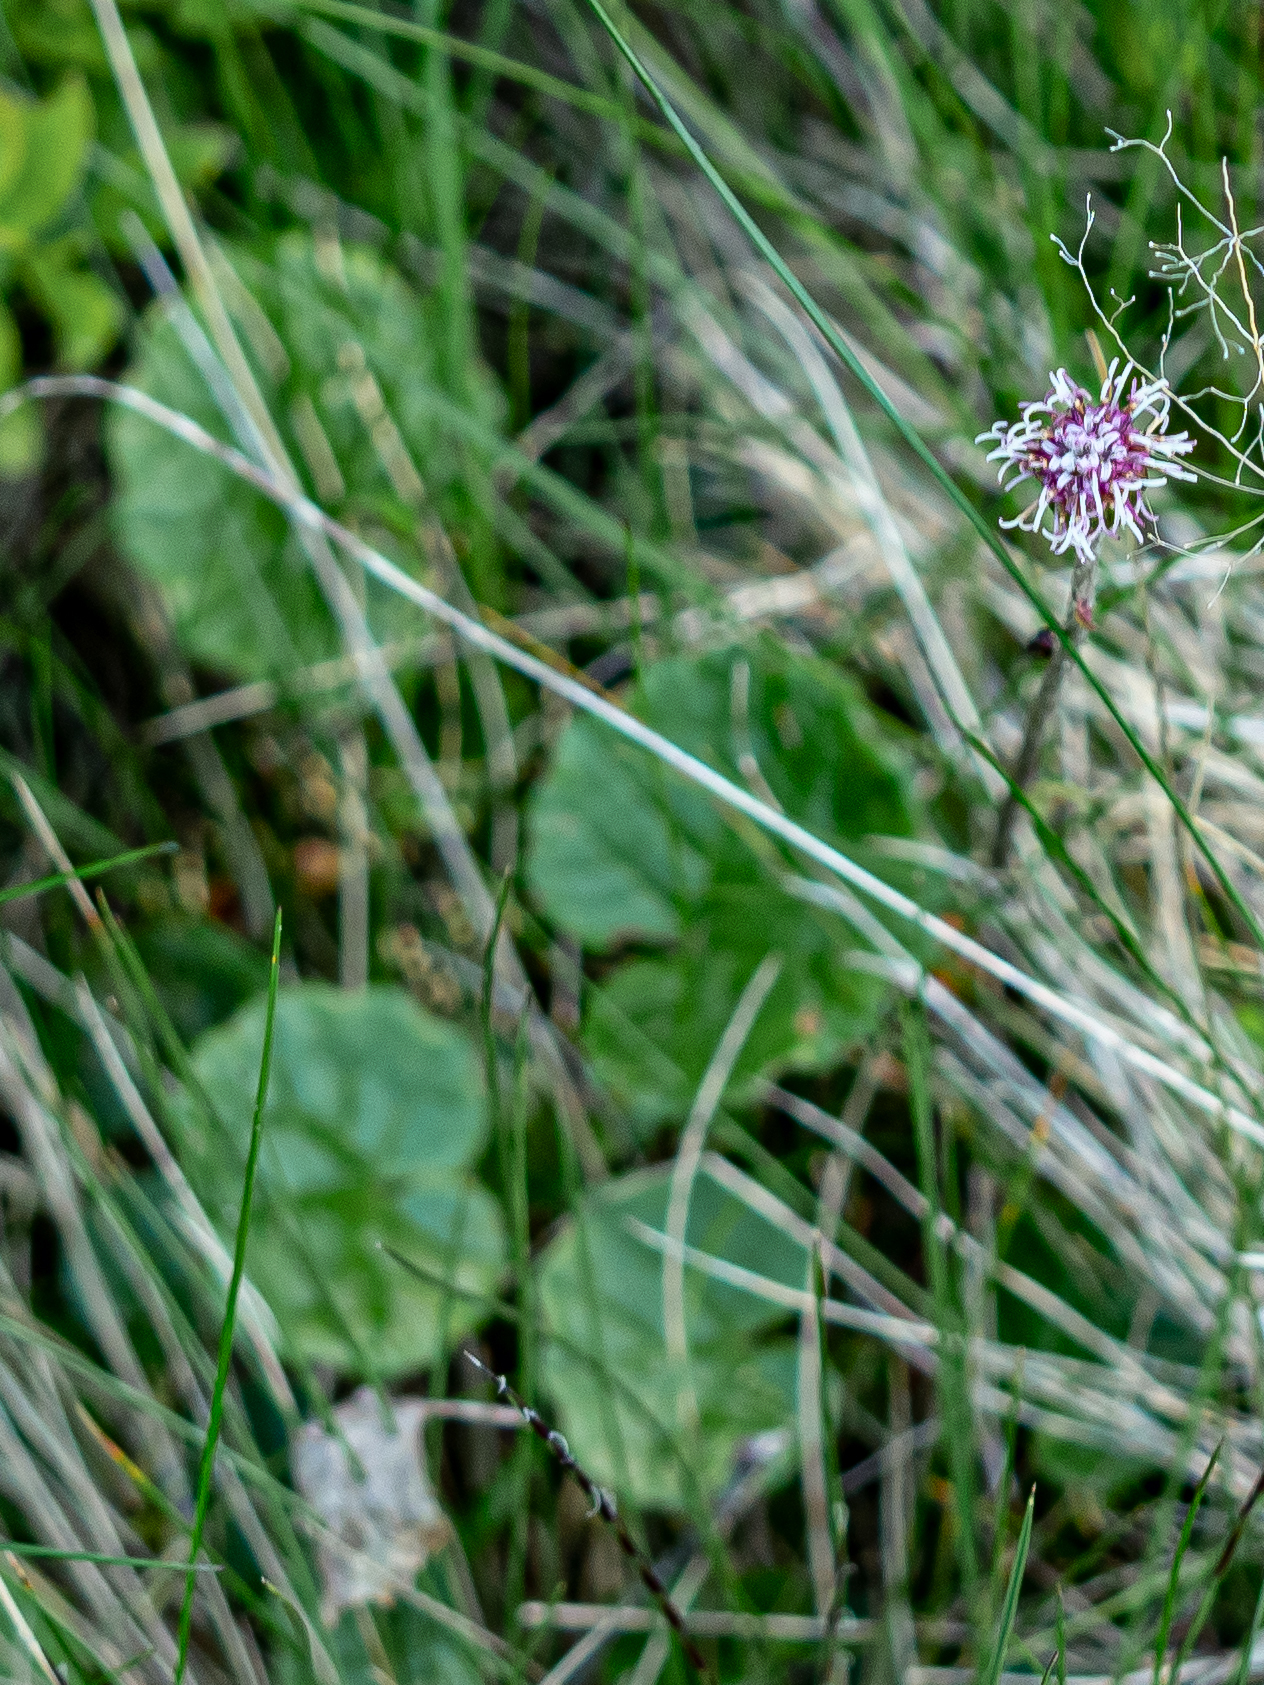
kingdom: Plantae
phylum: Tracheophyta
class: Magnoliopsida
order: Asterales
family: Asteraceae
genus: Homogyne
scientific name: Homogyne alpina
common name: Purple colt's-foot
